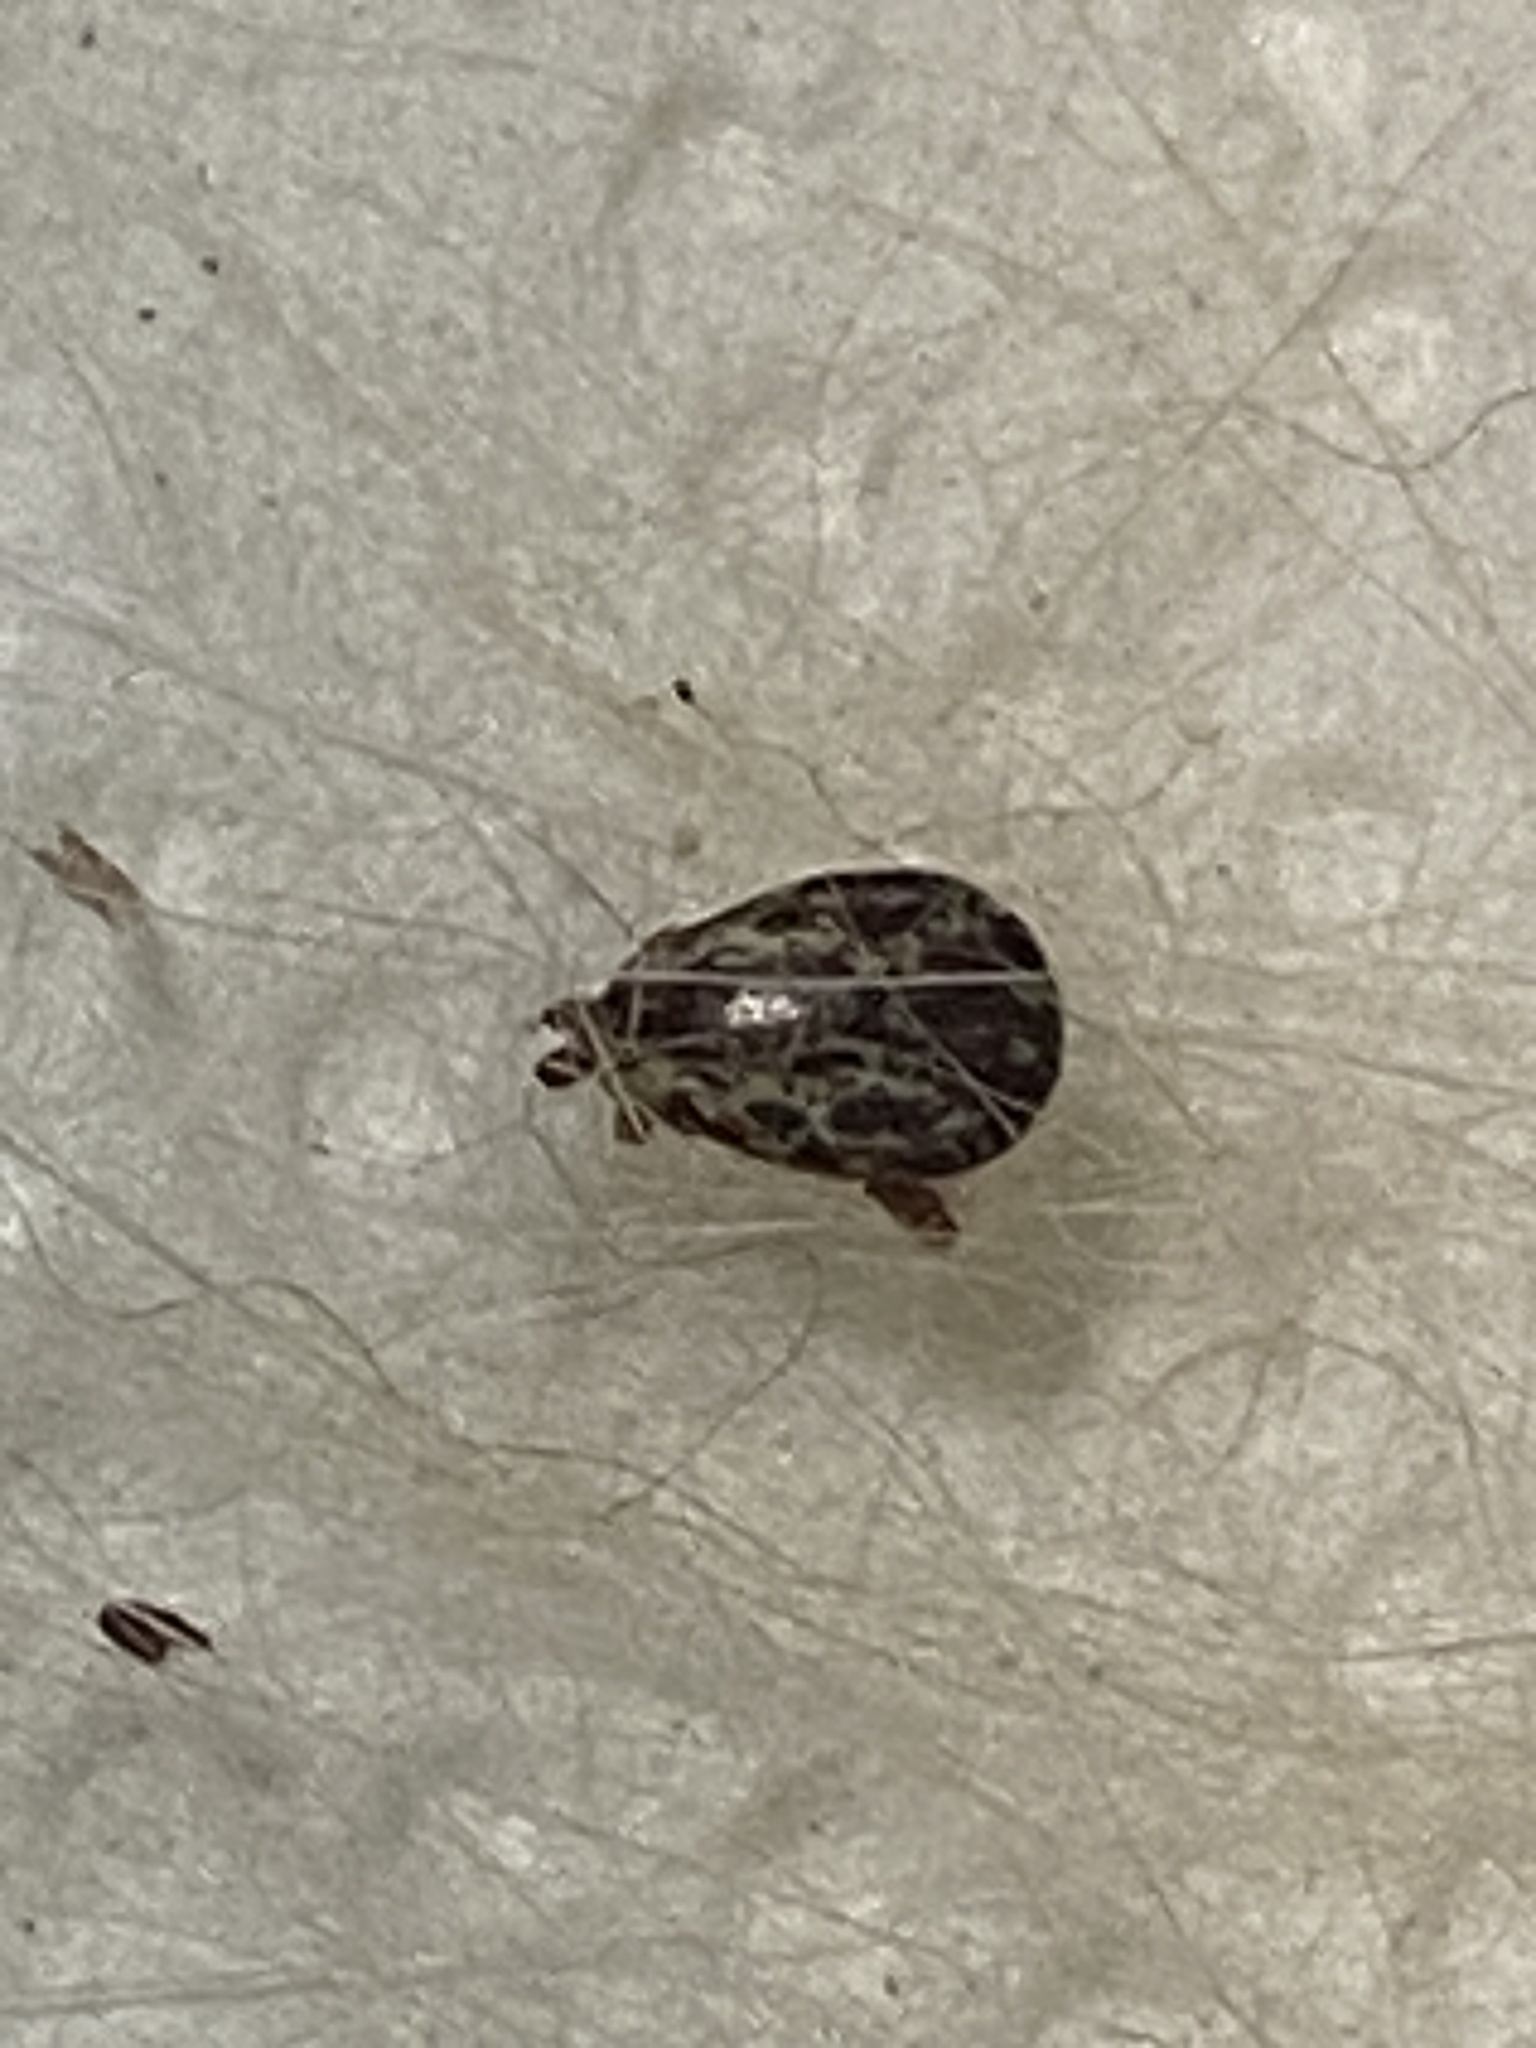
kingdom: Animalia
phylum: Arthropoda
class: Arachnida
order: Ixodida
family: Ixodidae
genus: Dermacentor
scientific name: Dermacentor variabilis
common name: American dog tick
